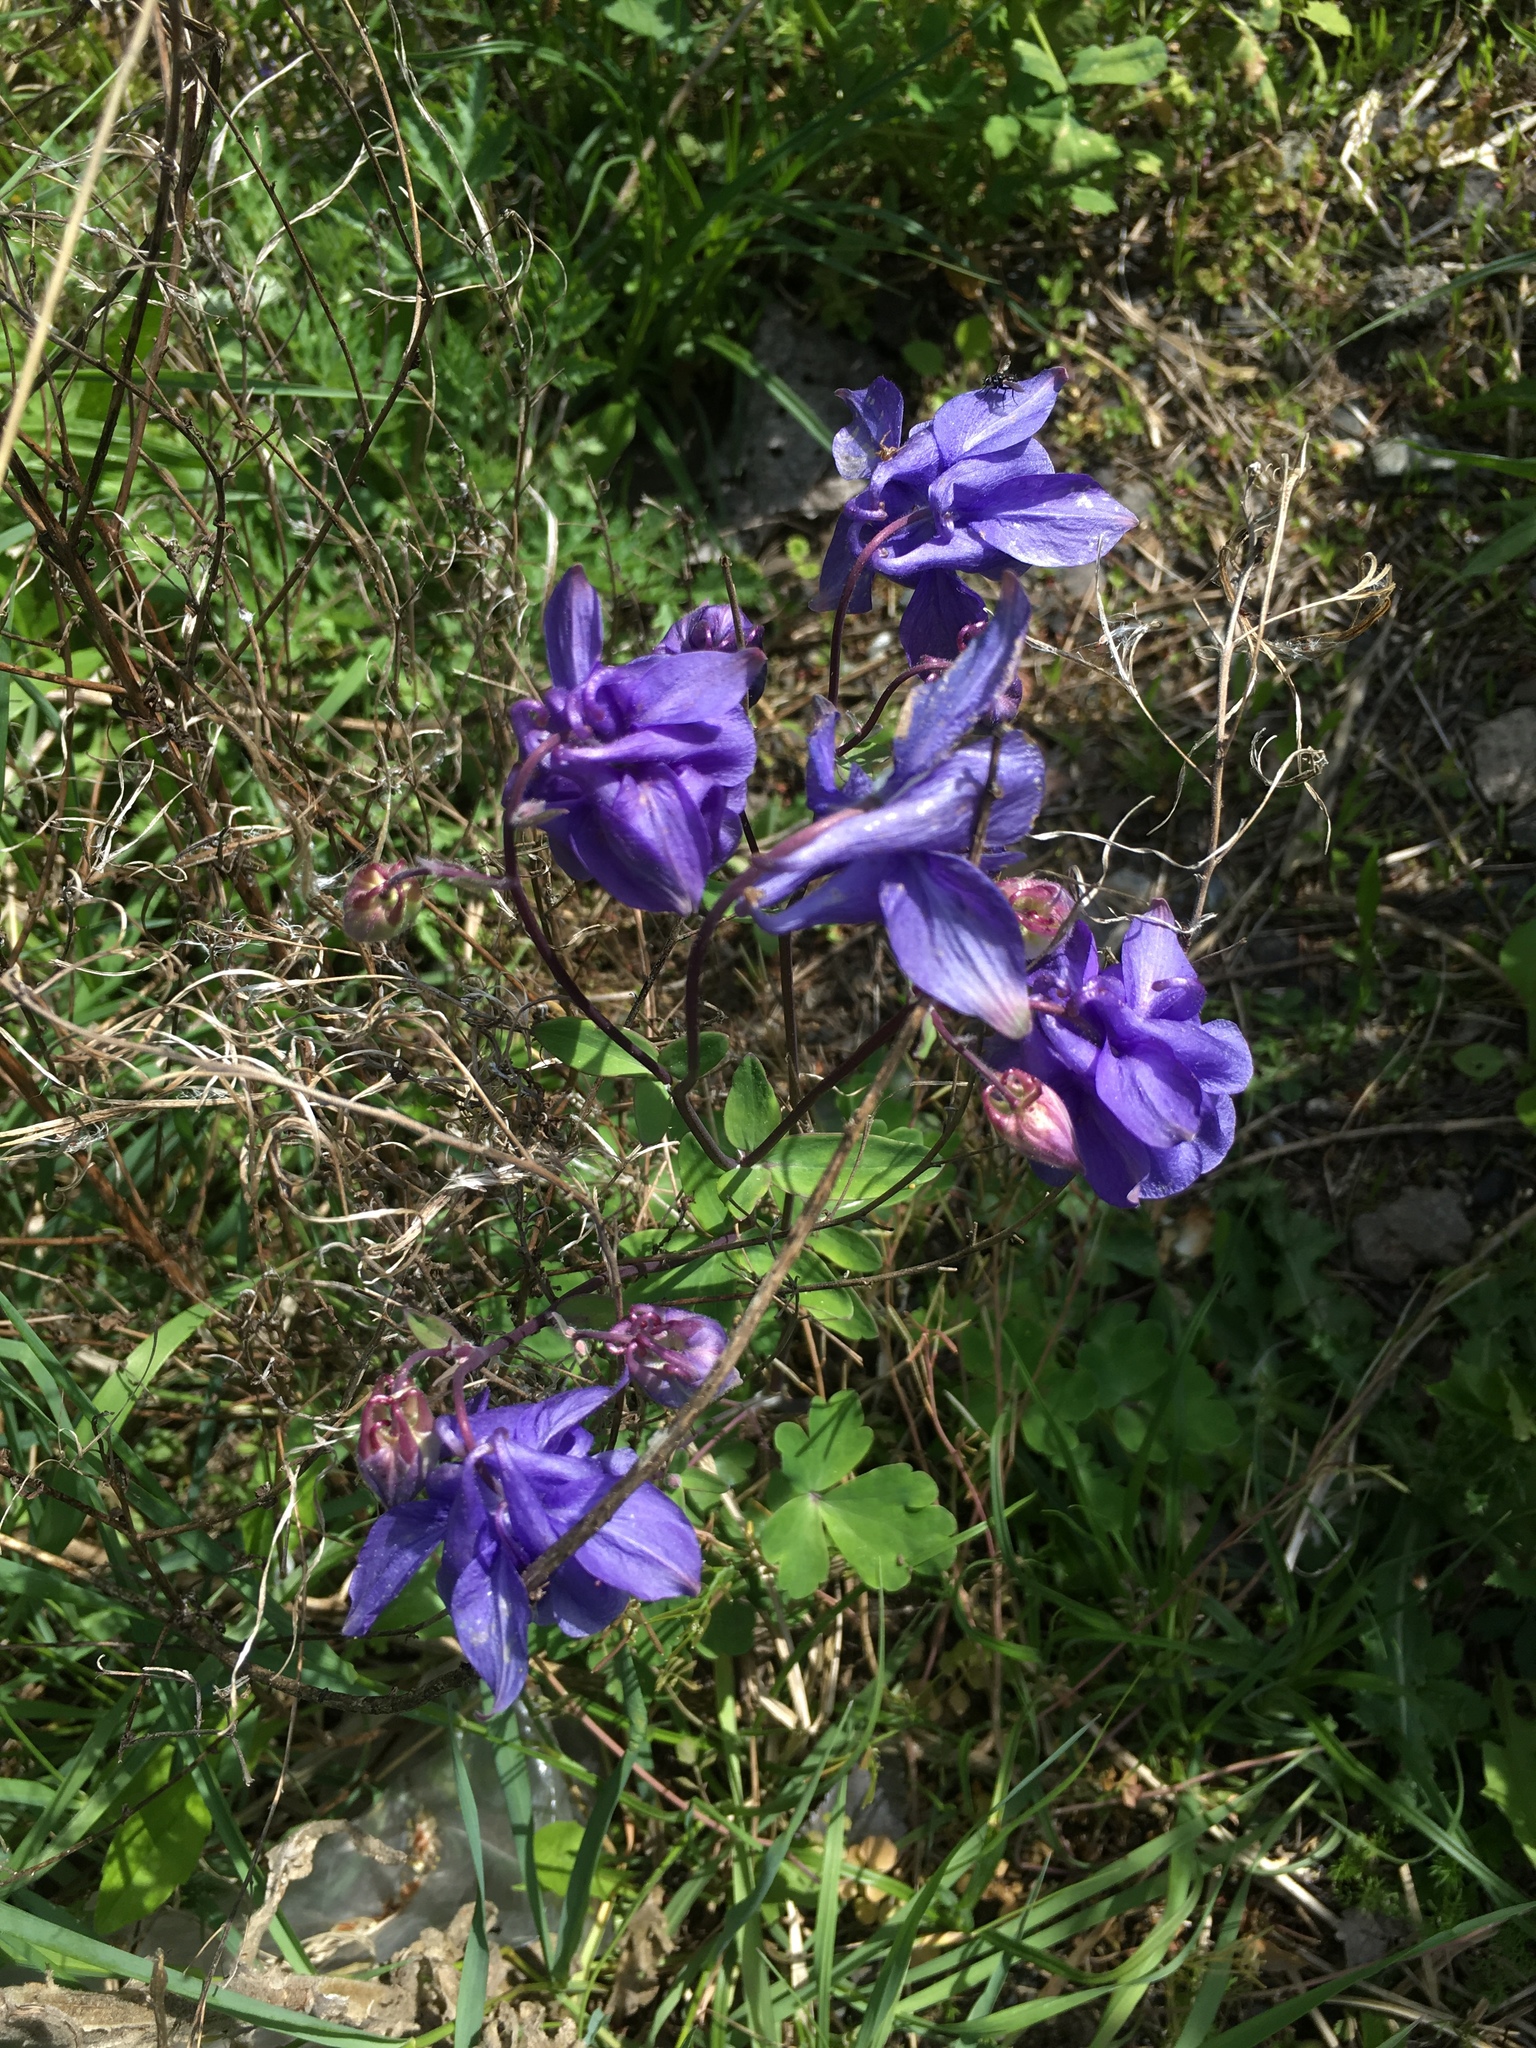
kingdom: Plantae
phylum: Tracheophyta
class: Magnoliopsida
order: Ranunculales
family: Ranunculaceae
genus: Aquilegia
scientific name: Aquilegia vulgaris
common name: Columbine
